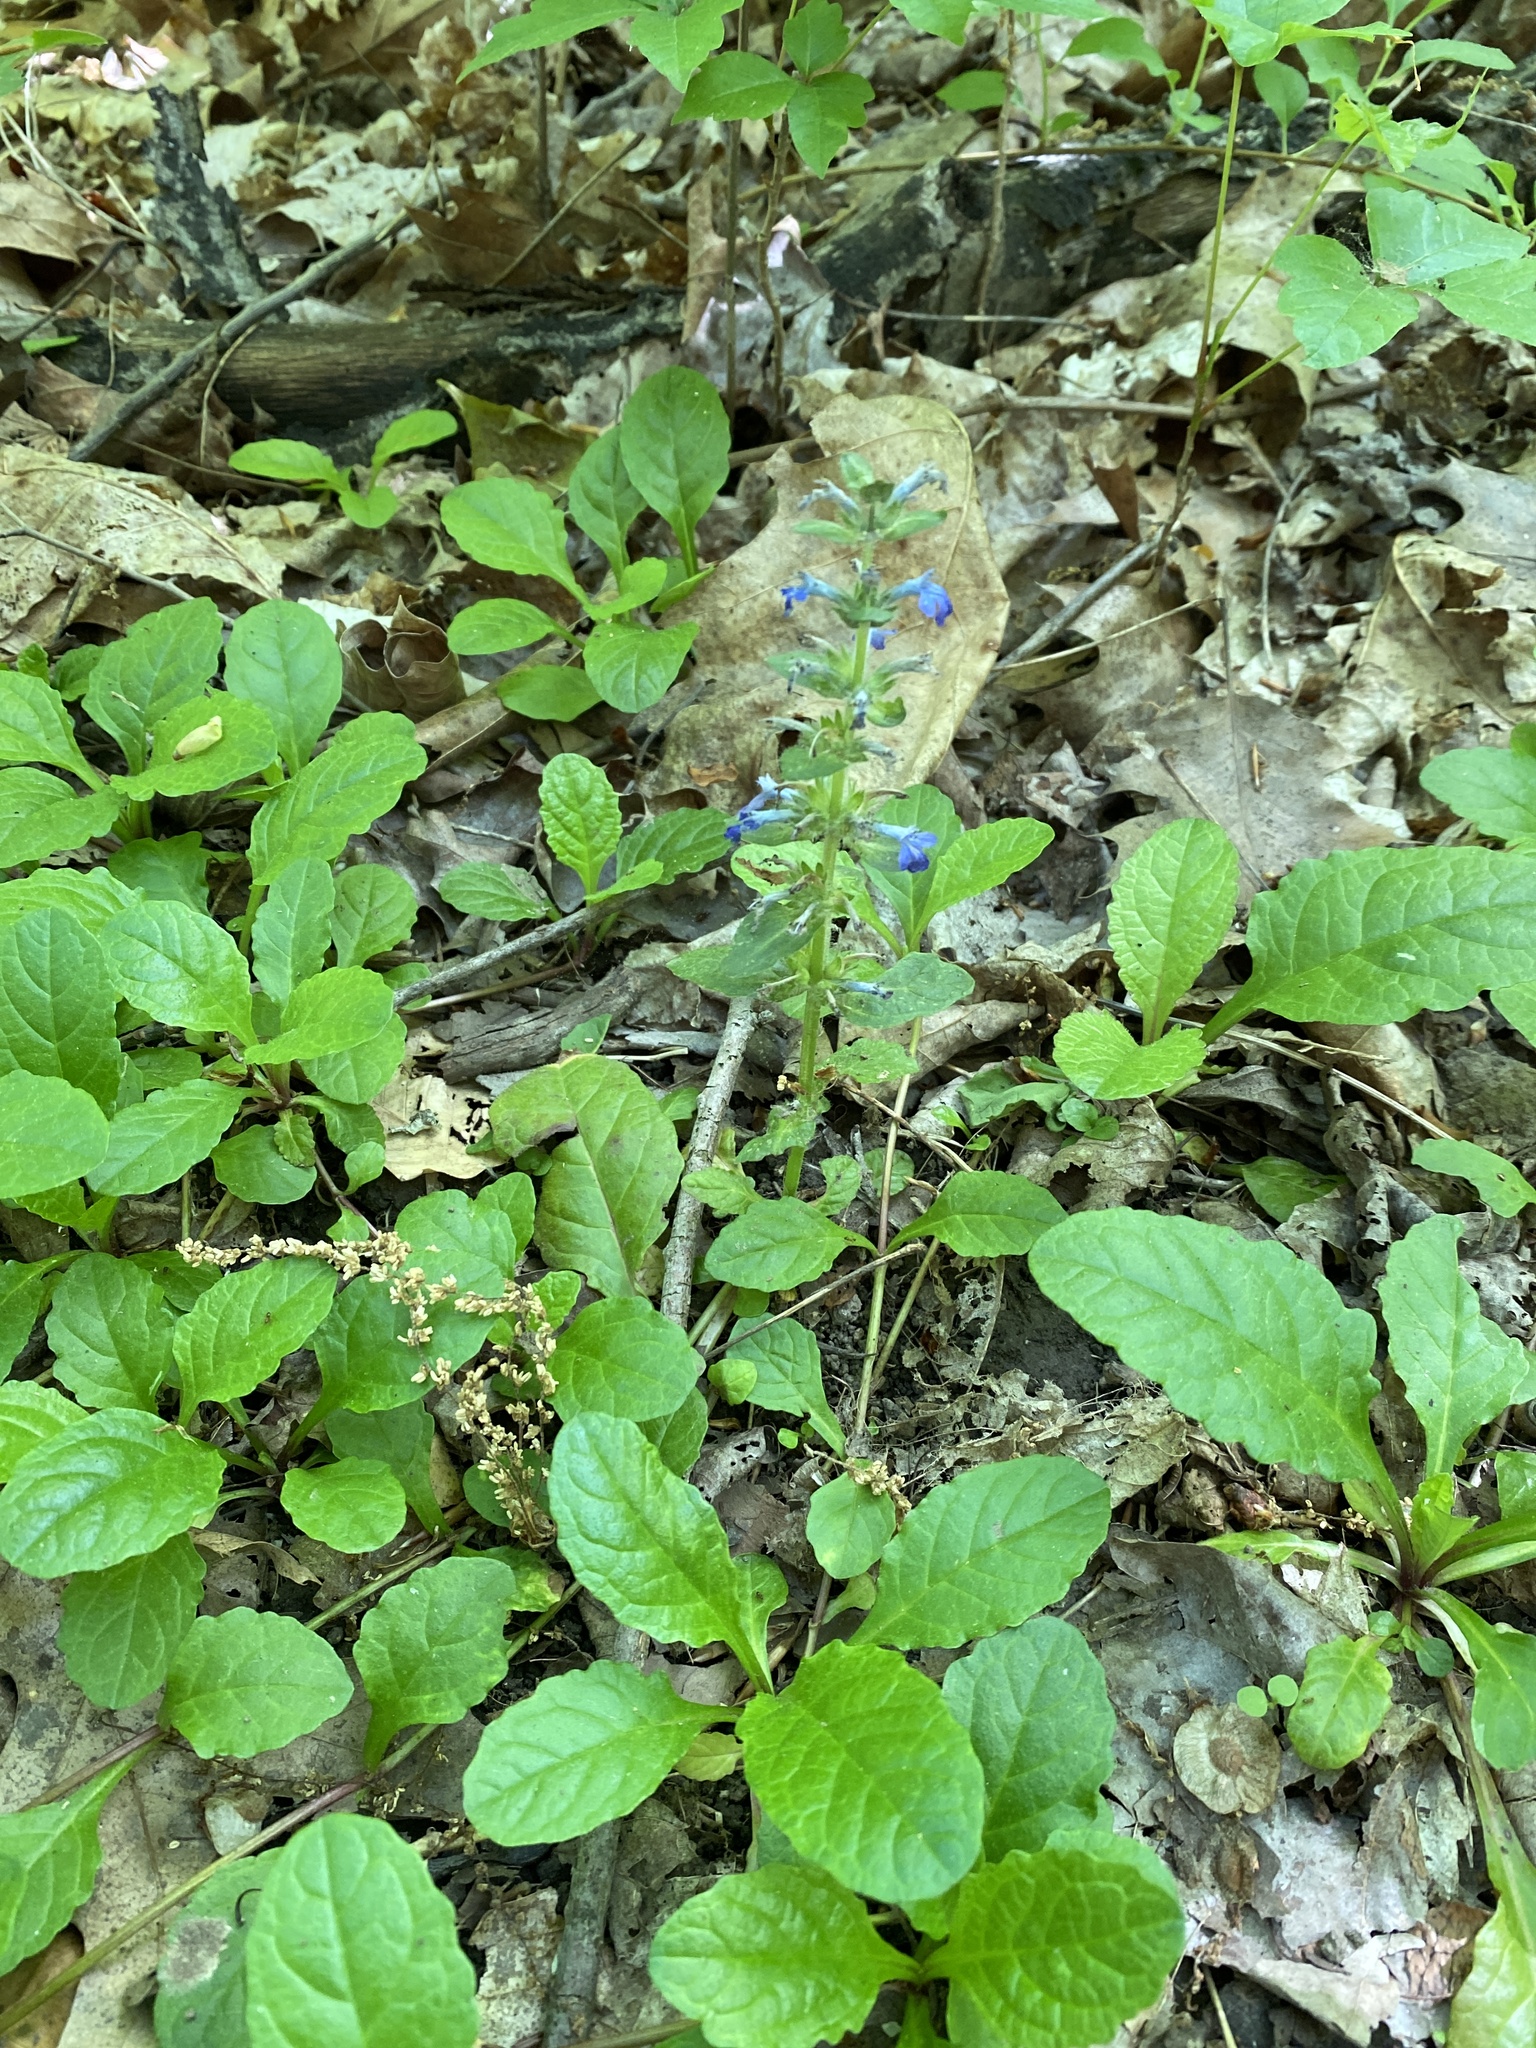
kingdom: Plantae
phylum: Tracheophyta
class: Magnoliopsida
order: Lamiales
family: Lamiaceae
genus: Ajuga
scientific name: Ajuga reptans
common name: Bugle
